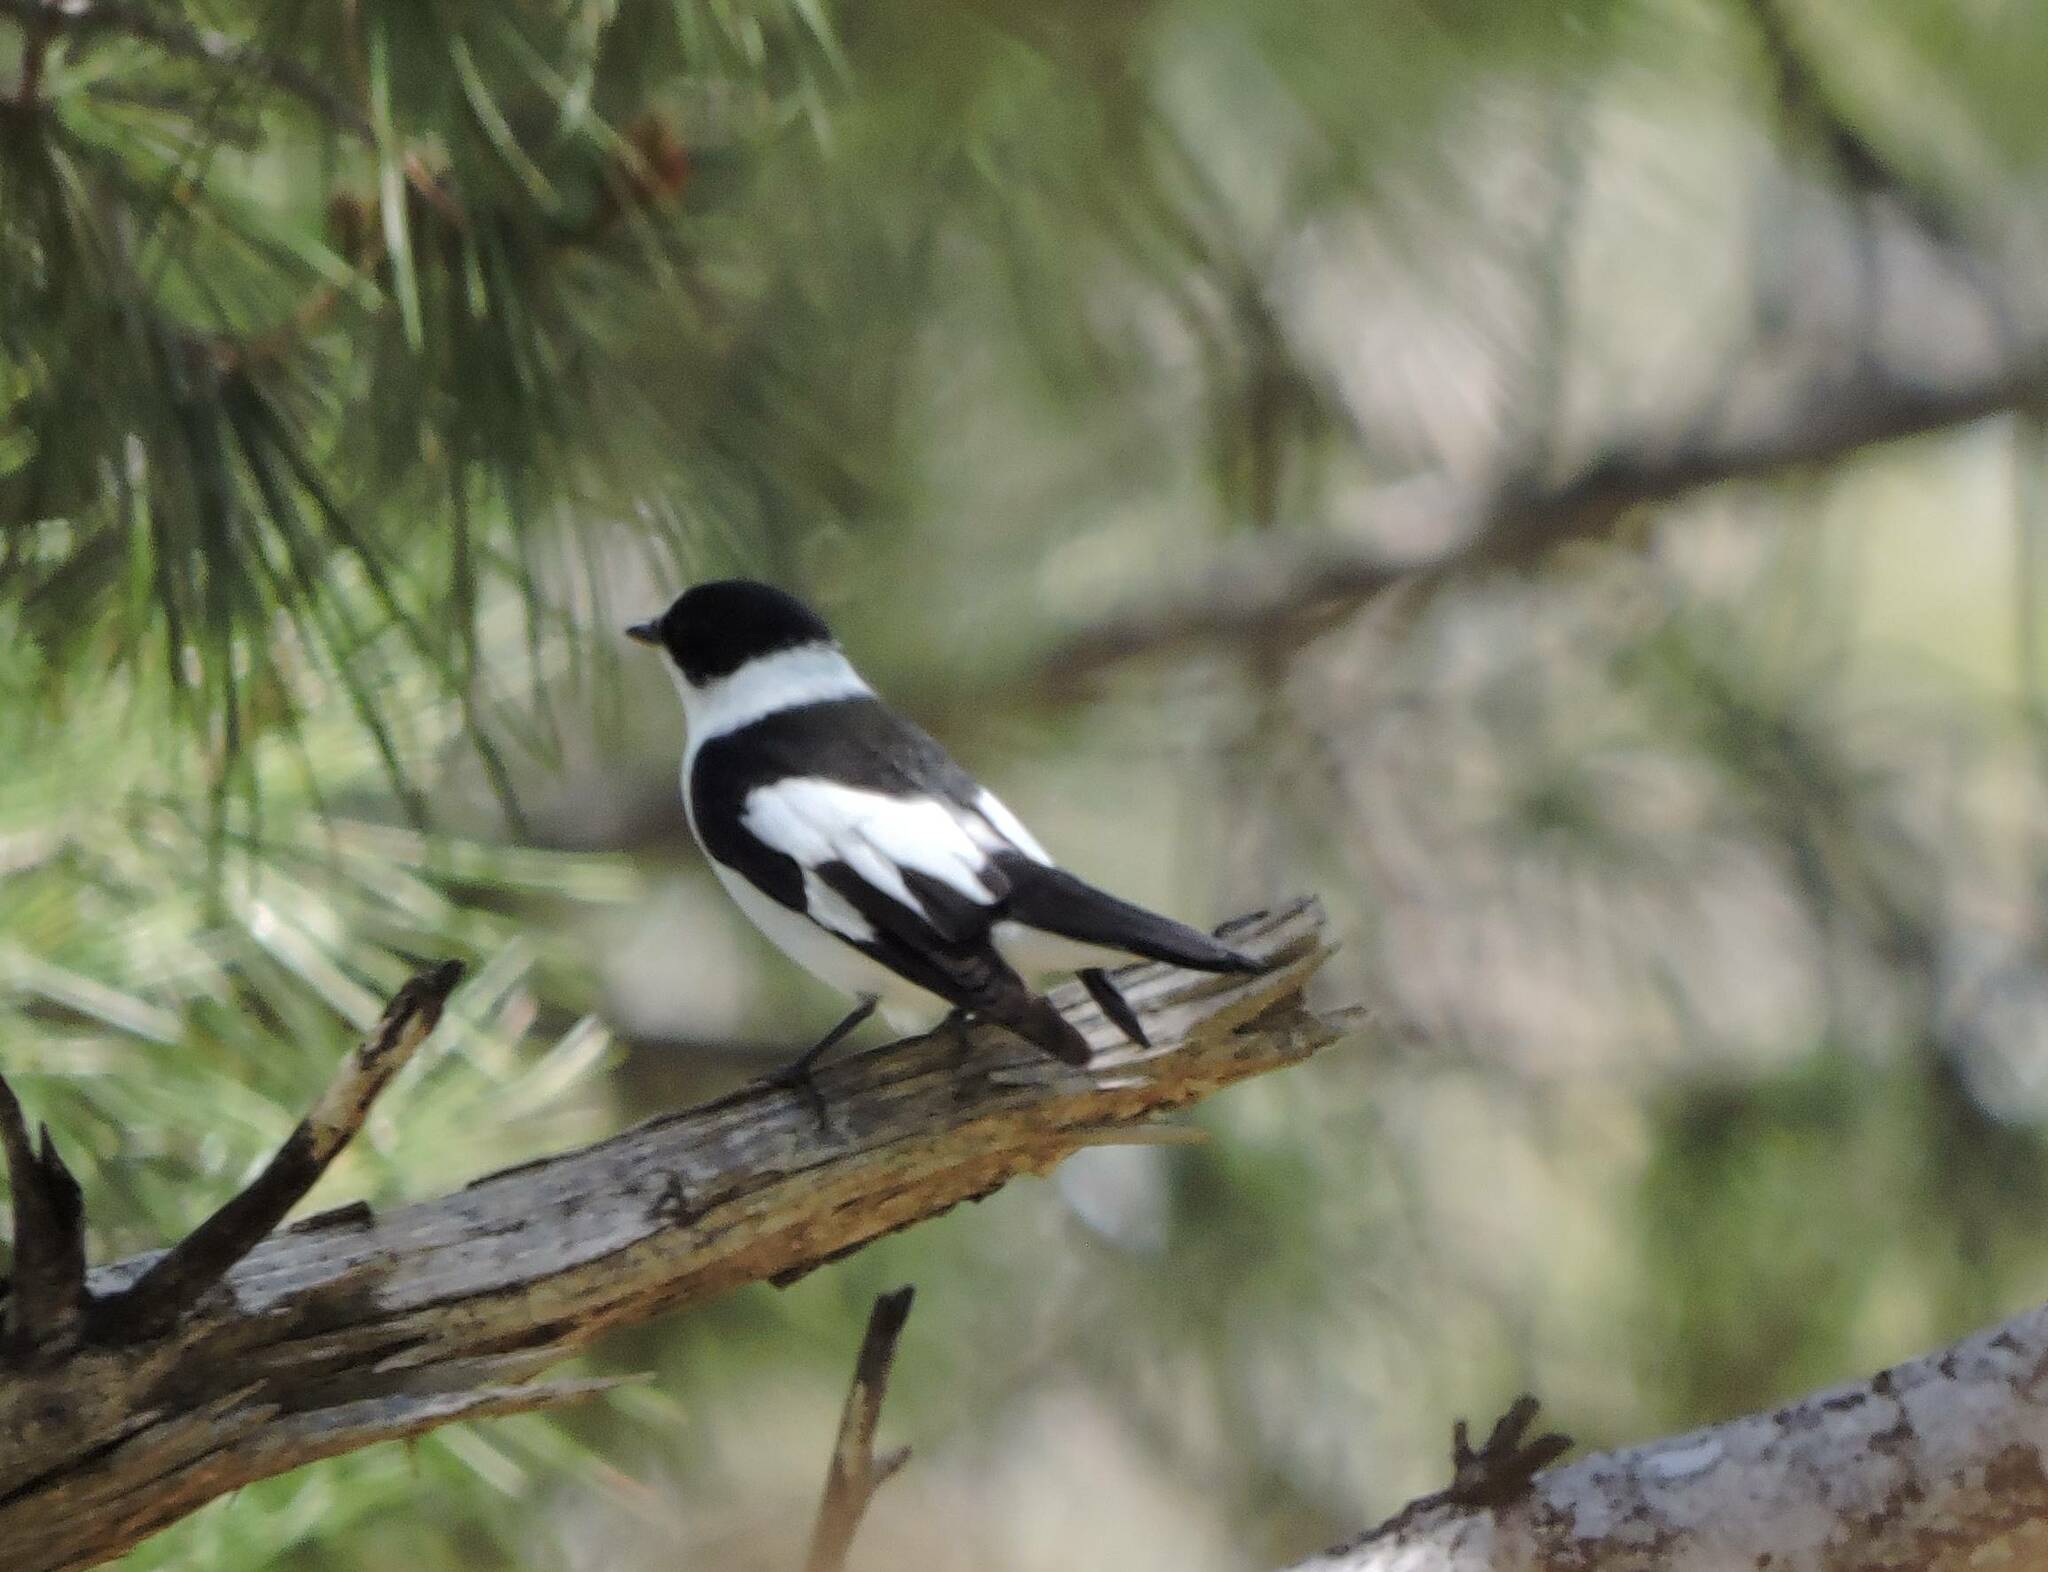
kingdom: Animalia
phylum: Chordata
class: Aves
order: Passeriformes
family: Muscicapidae
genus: Ficedula
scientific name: Ficedula albicollis
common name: Collared flycatcher
